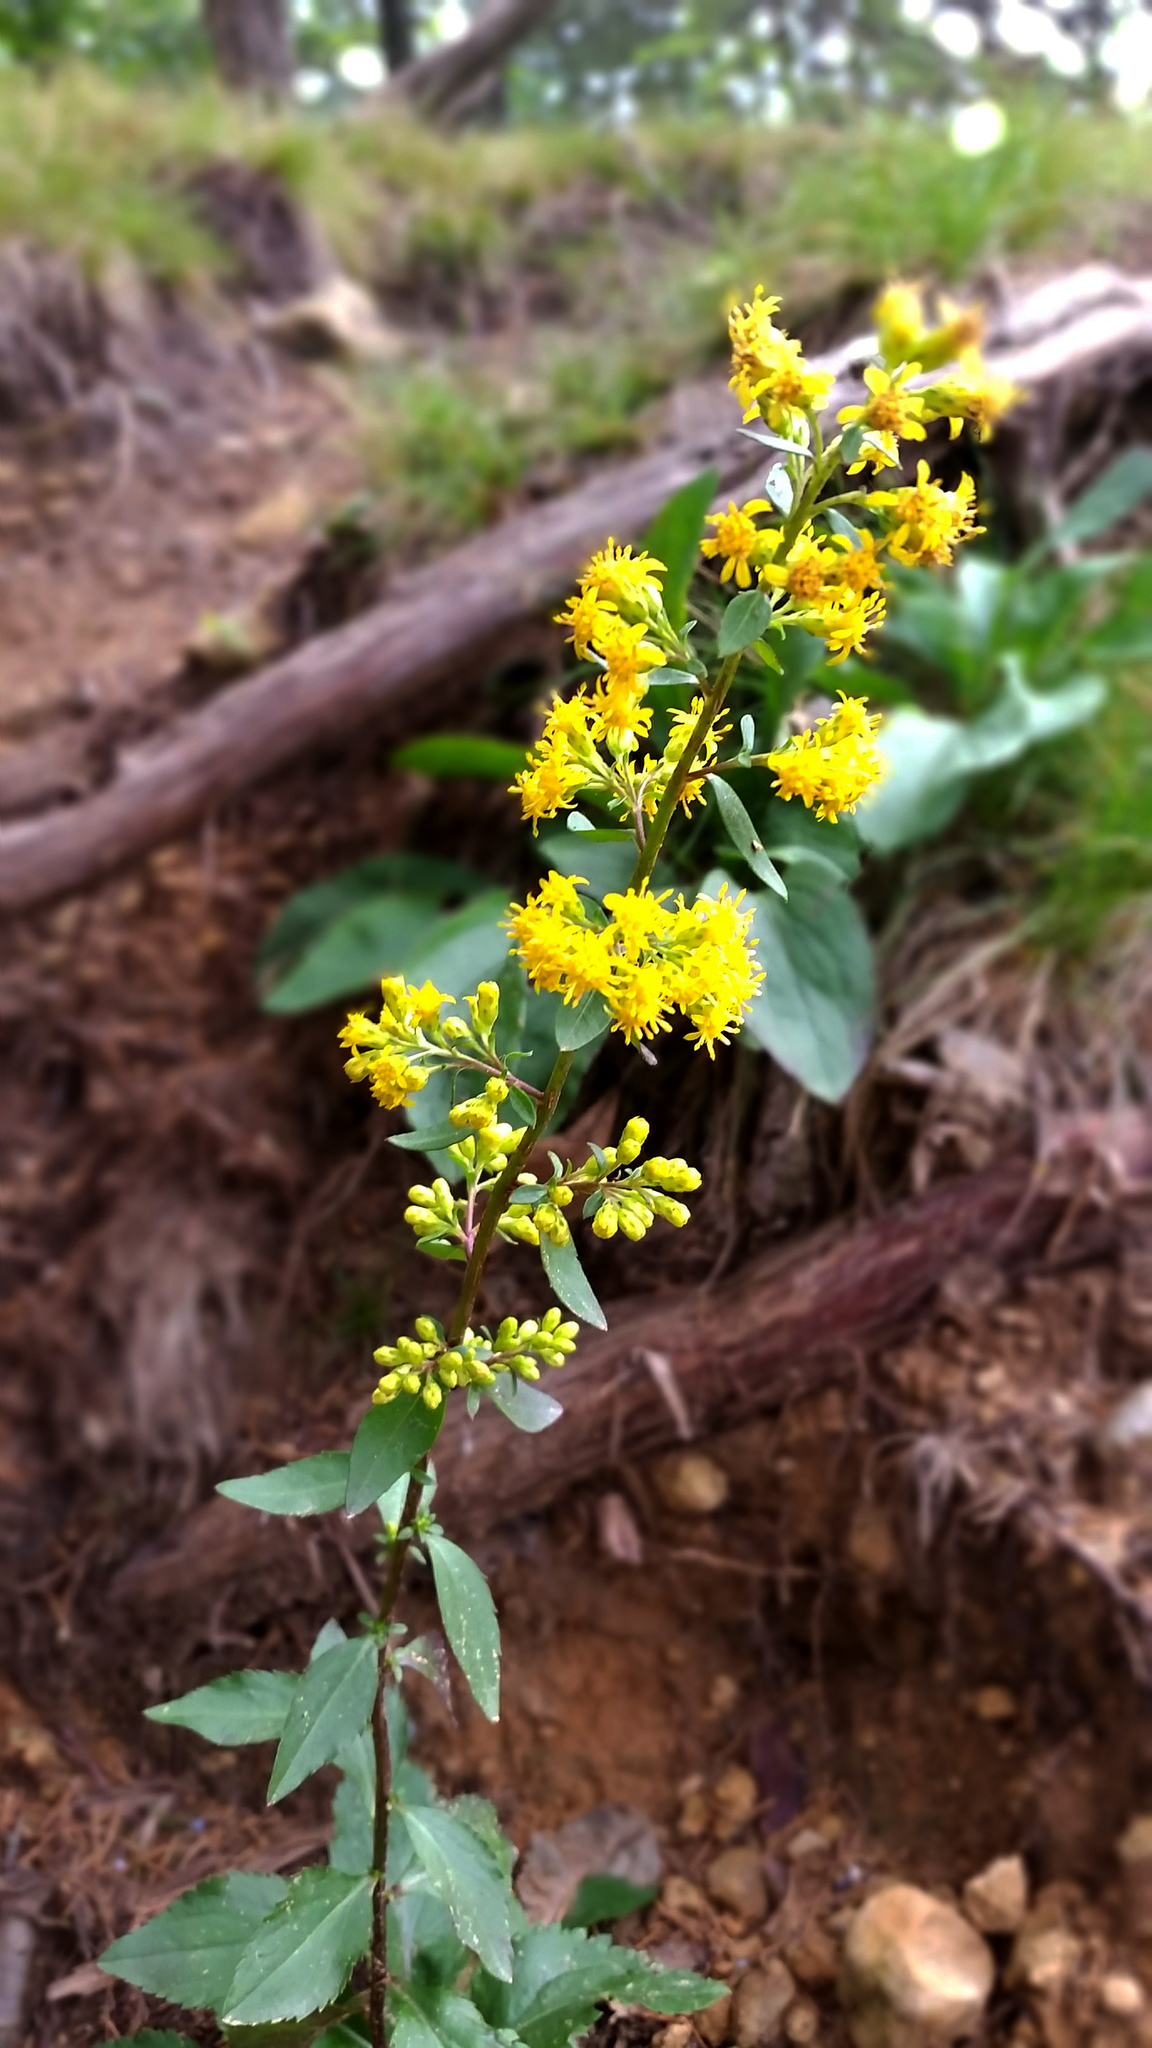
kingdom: Plantae
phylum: Tracheophyta
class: Magnoliopsida
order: Asterales
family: Asteraceae
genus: Solidago
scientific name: Solidago sciaphila
